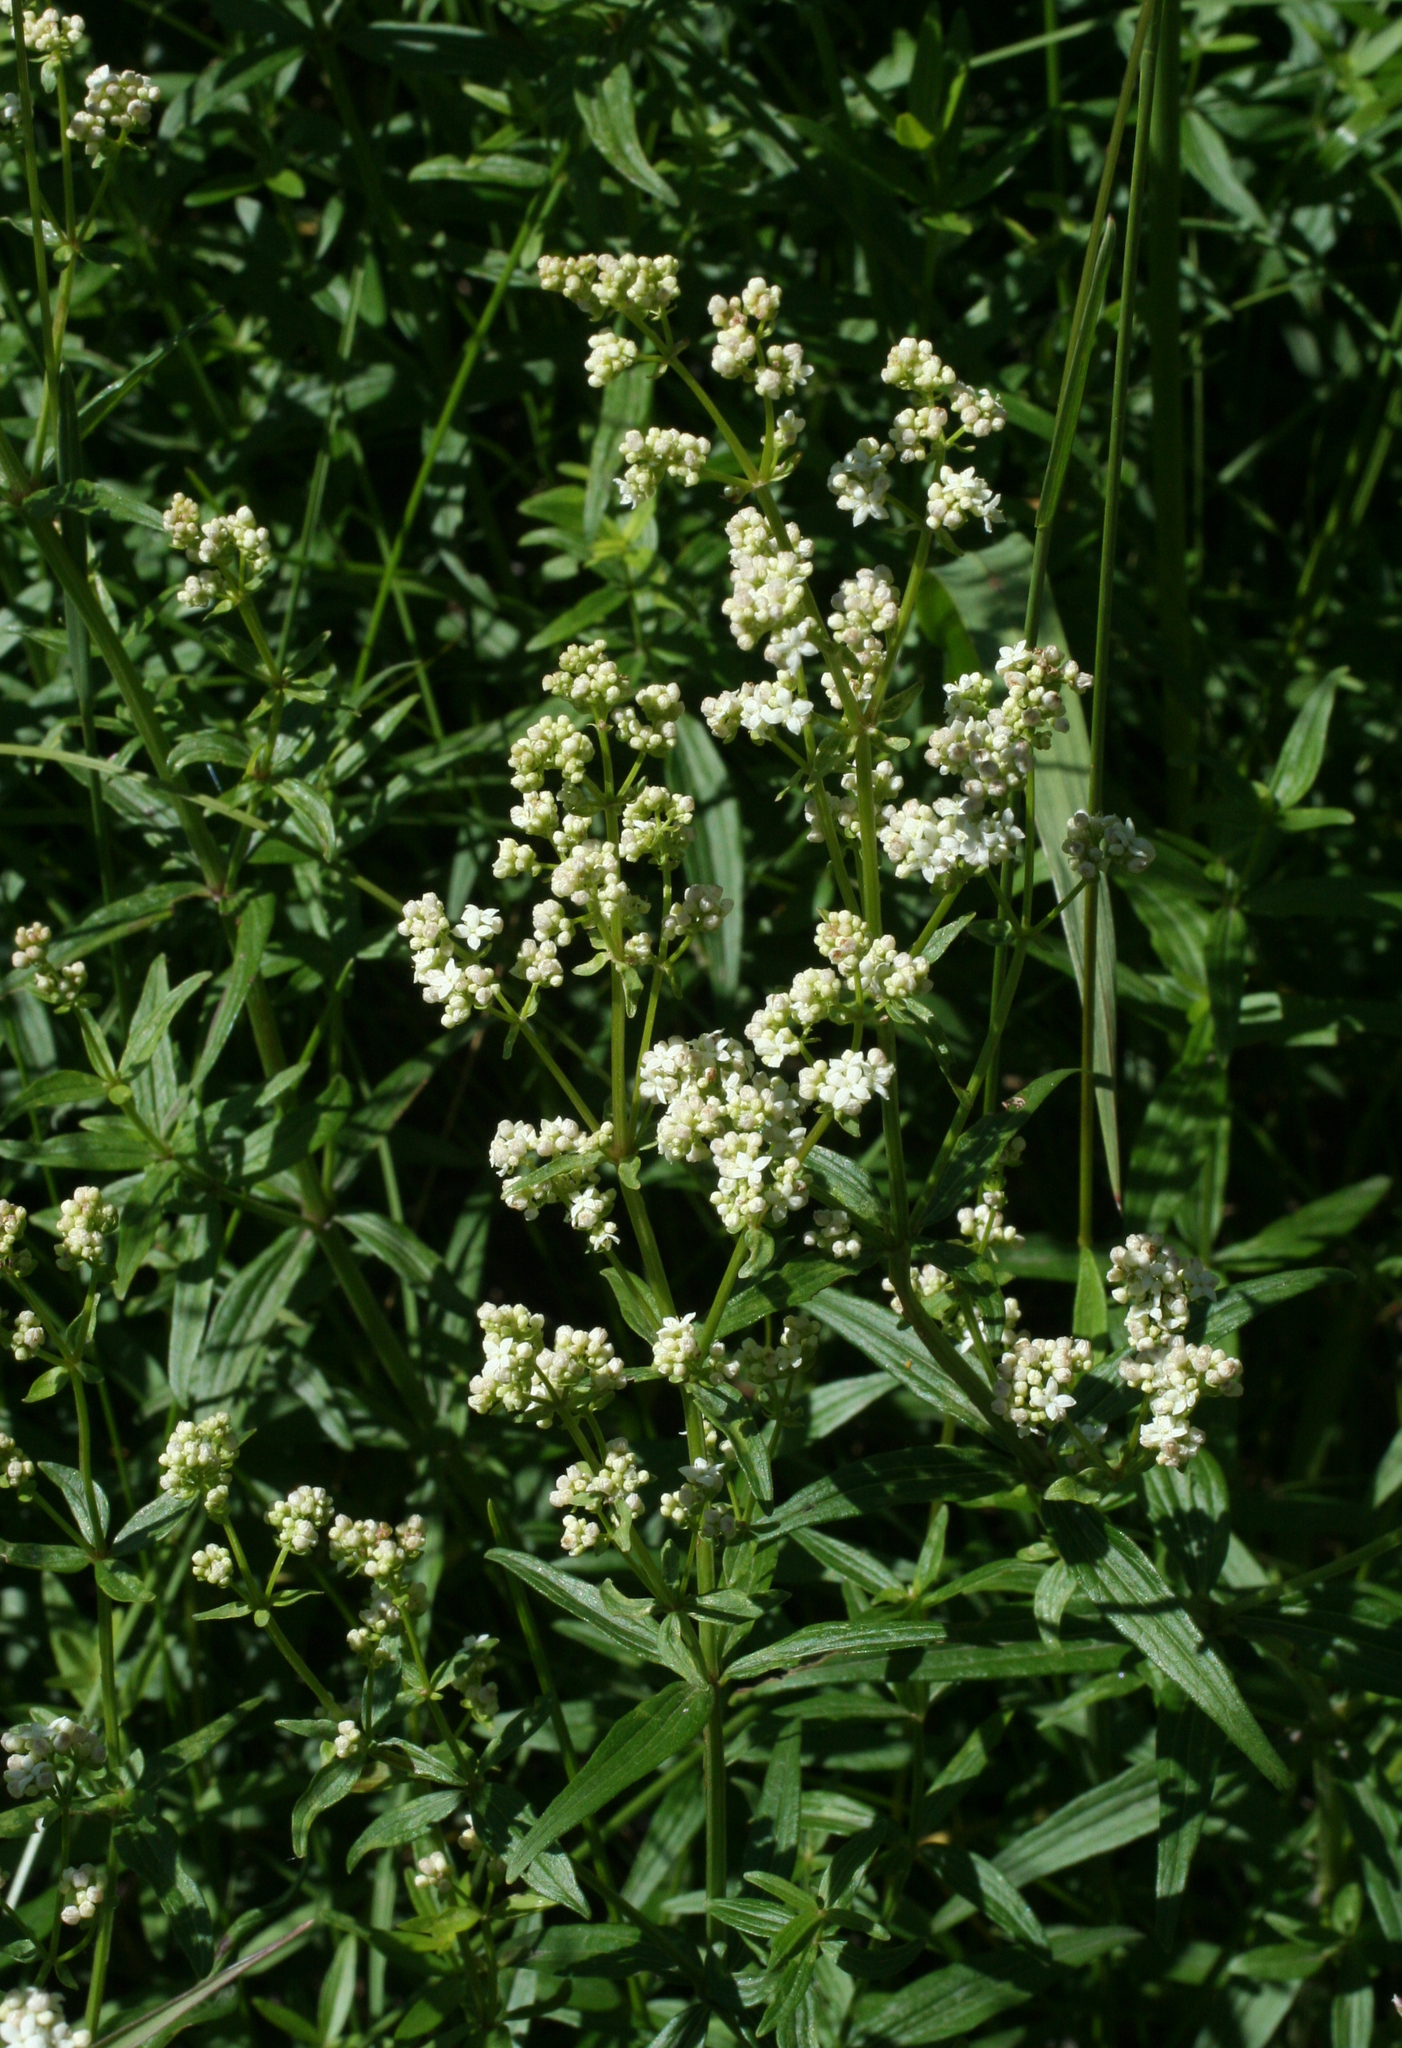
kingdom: Plantae
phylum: Tracheophyta
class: Magnoliopsida
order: Gentianales
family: Rubiaceae
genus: Galium
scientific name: Galium boreale
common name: Northern bedstraw
